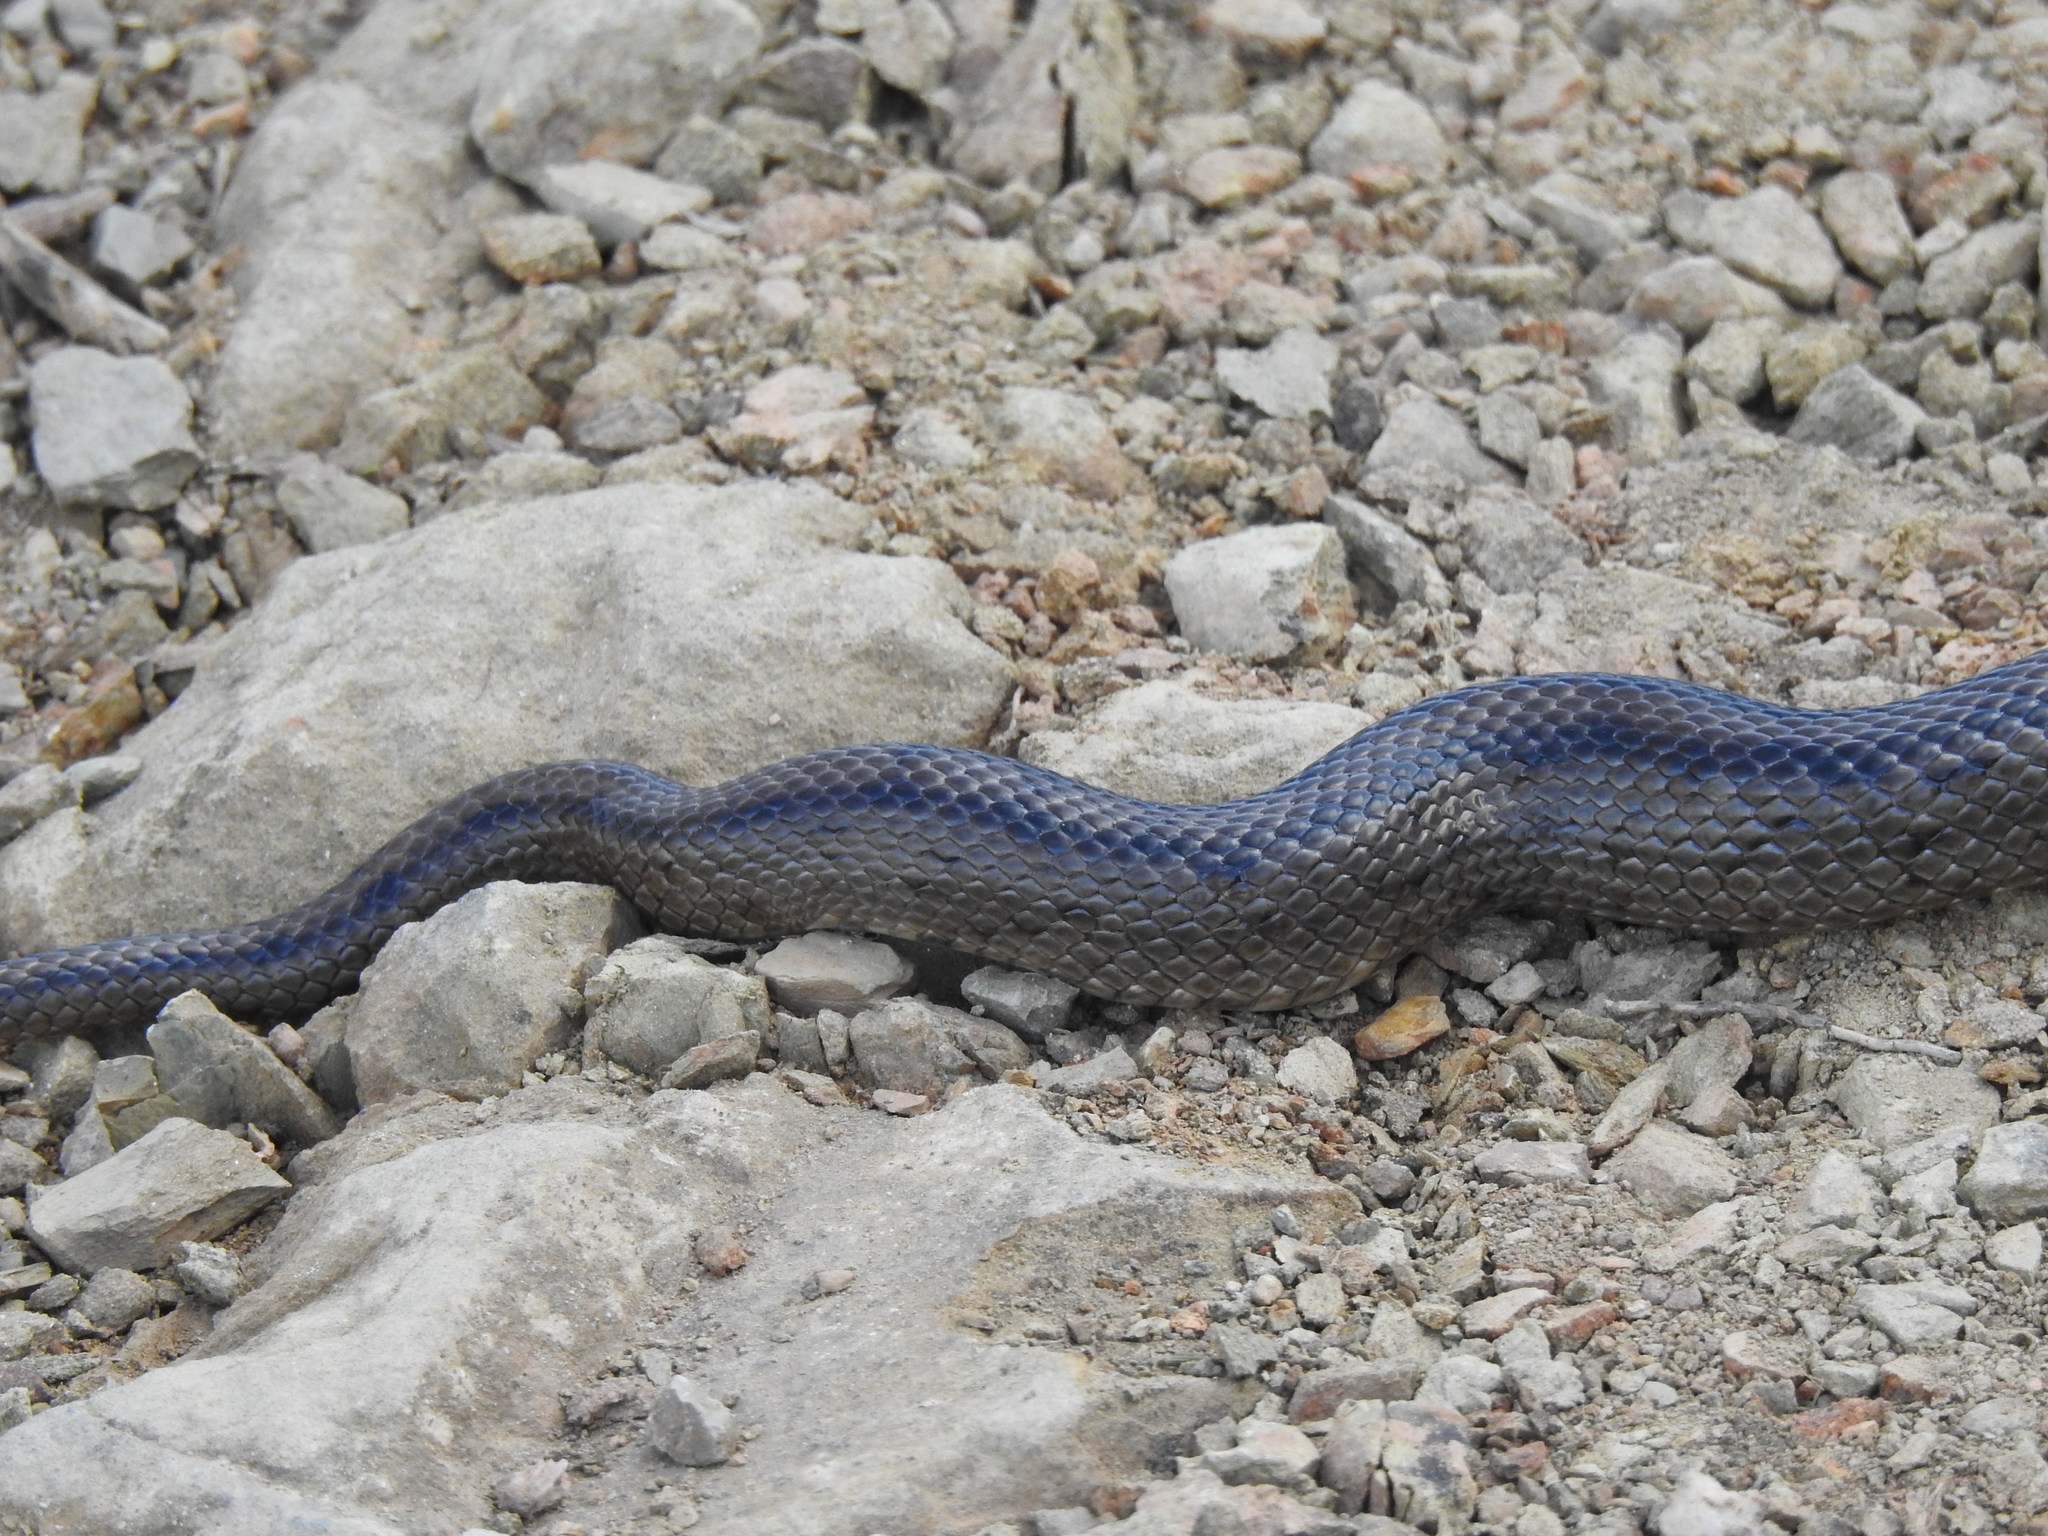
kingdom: Animalia
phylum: Chordata
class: Squamata
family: Colubridae
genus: Zamenis
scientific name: Zamenis scalaris
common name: Ladder snakes
